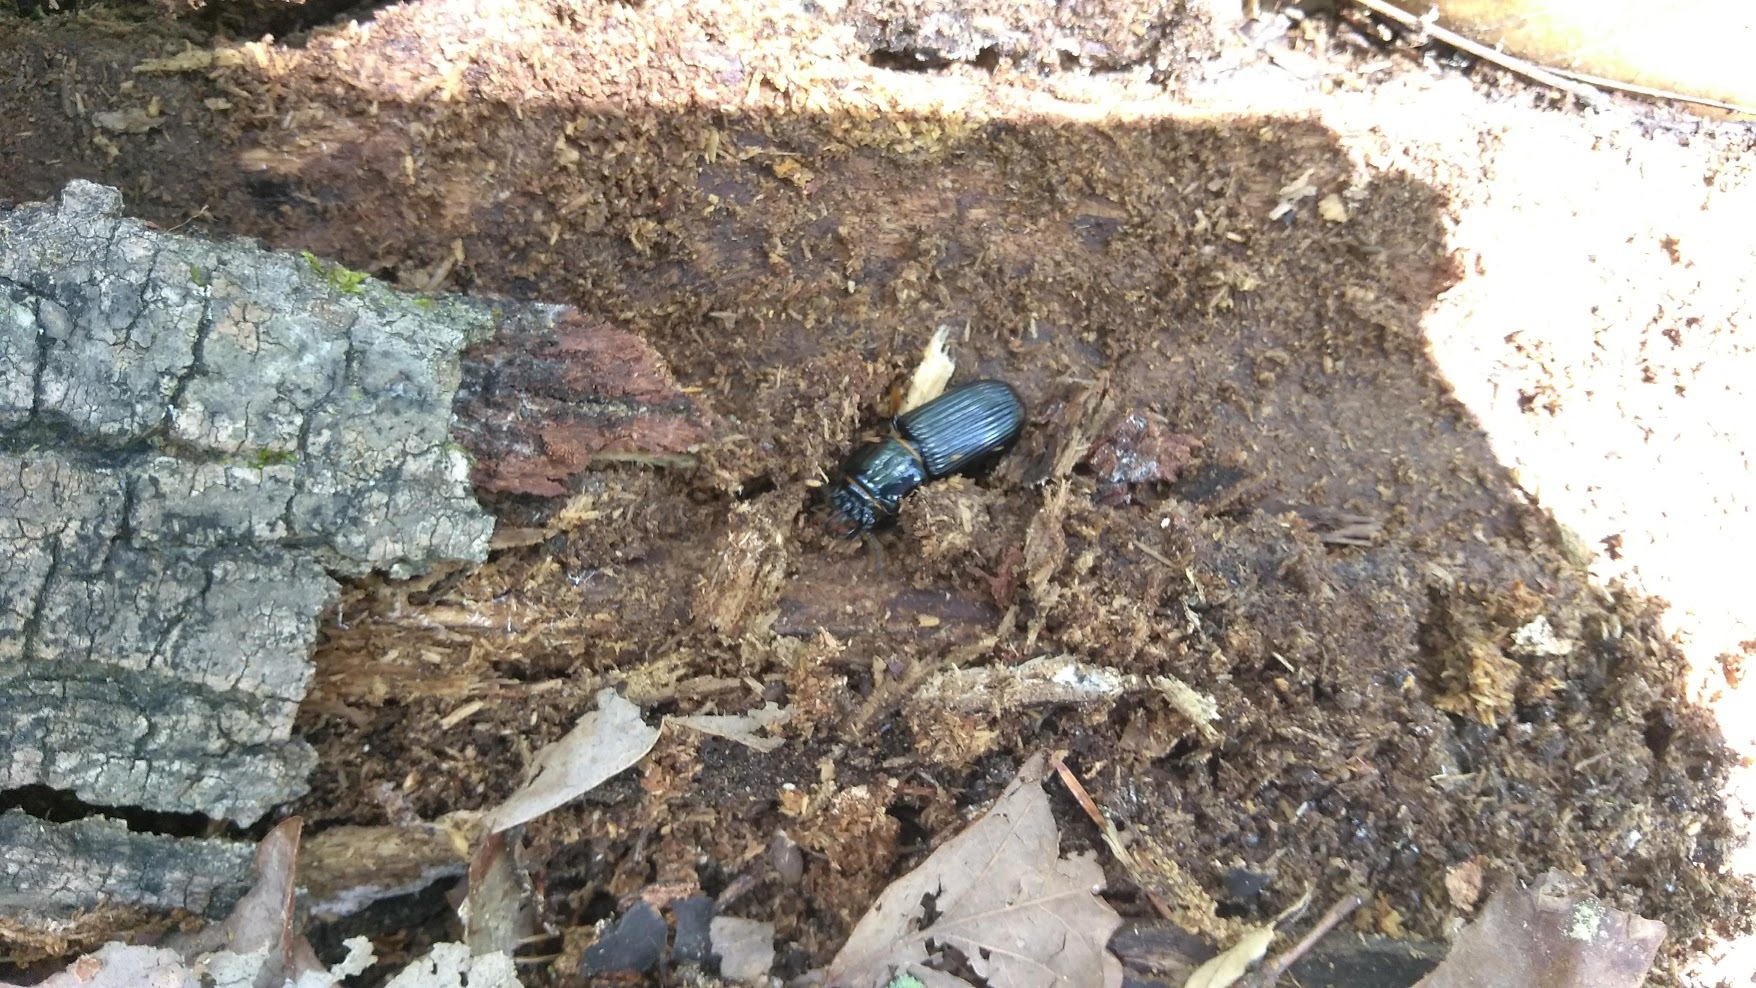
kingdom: Animalia
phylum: Arthropoda
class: Insecta
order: Coleoptera
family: Passalidae
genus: Odontotaenius
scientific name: Odontotaenius disjunctus
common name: Patent leather beetle
